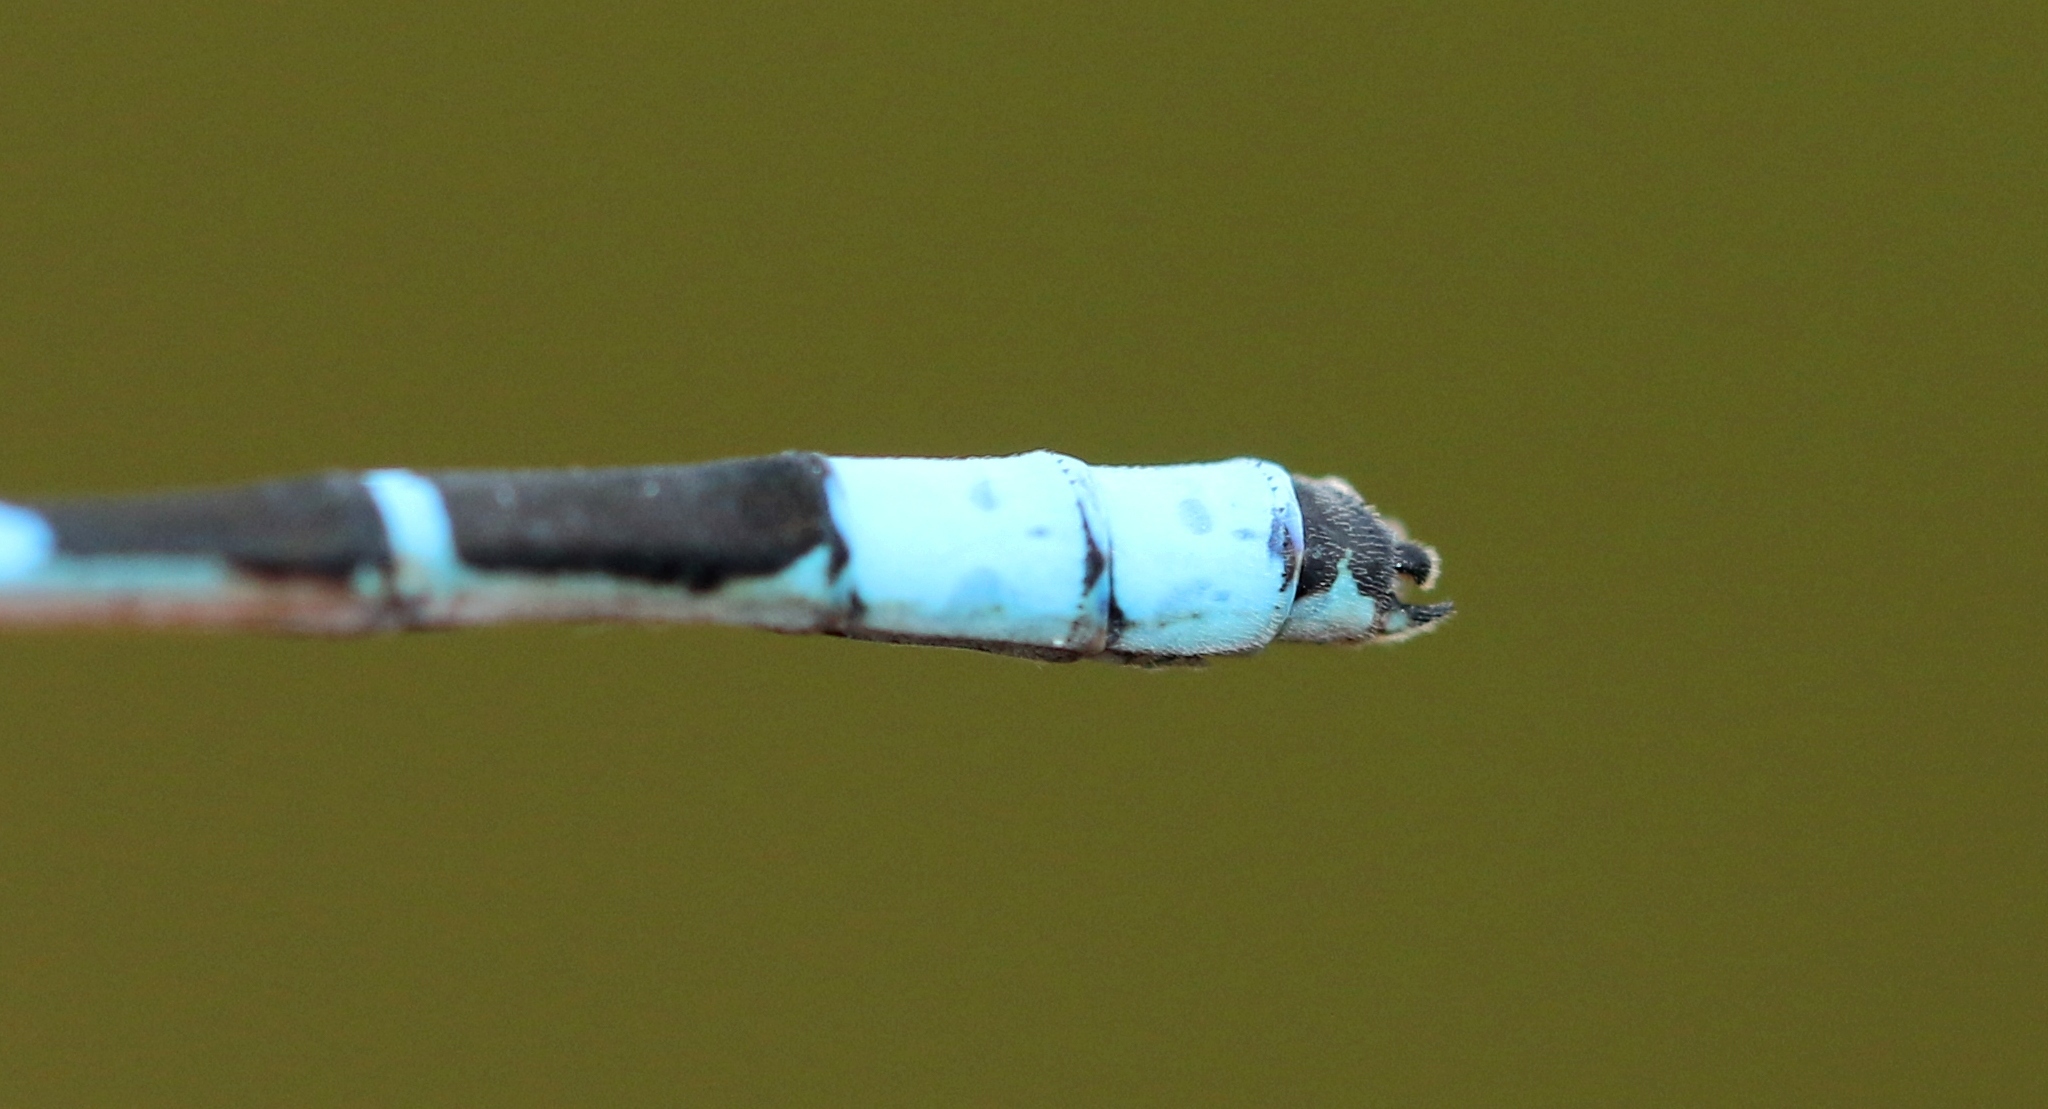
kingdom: Animalia
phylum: Arthropoda
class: Insecta
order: Odonata
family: Coenagrionidae
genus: Enallagma
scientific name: Enallagma boreale
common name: Boreal bluet
